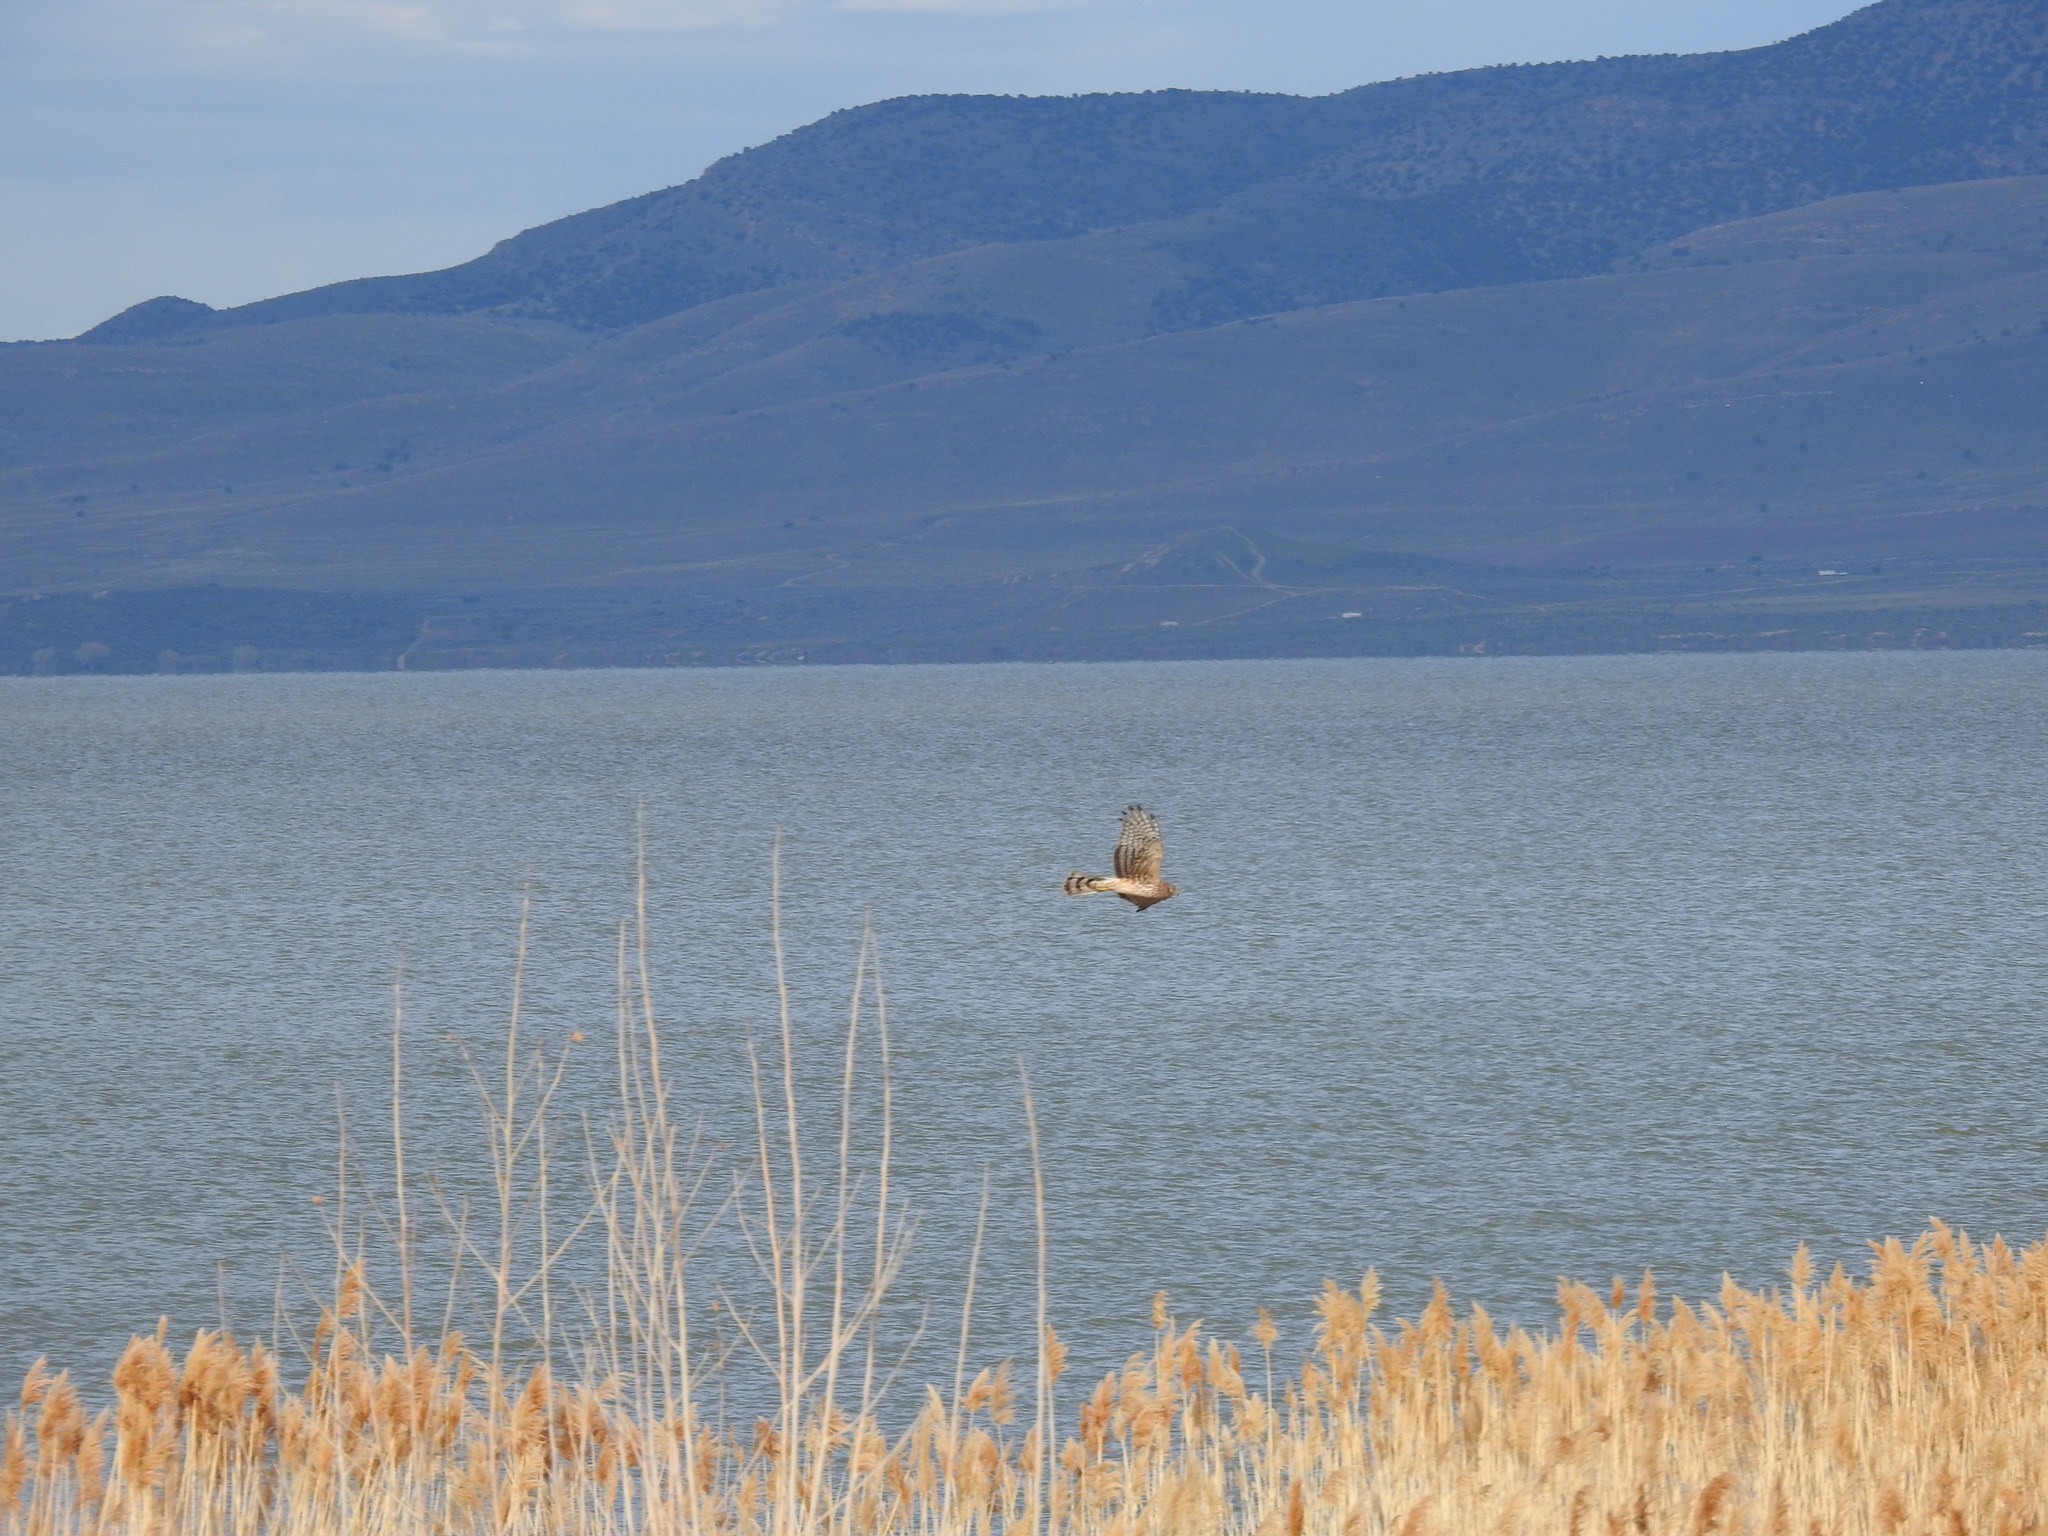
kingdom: Animalia
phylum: Chordata
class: Aves
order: Accipitriformes
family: Accipitridae
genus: Circus
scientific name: Circus cyaneus
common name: Hen harrier
